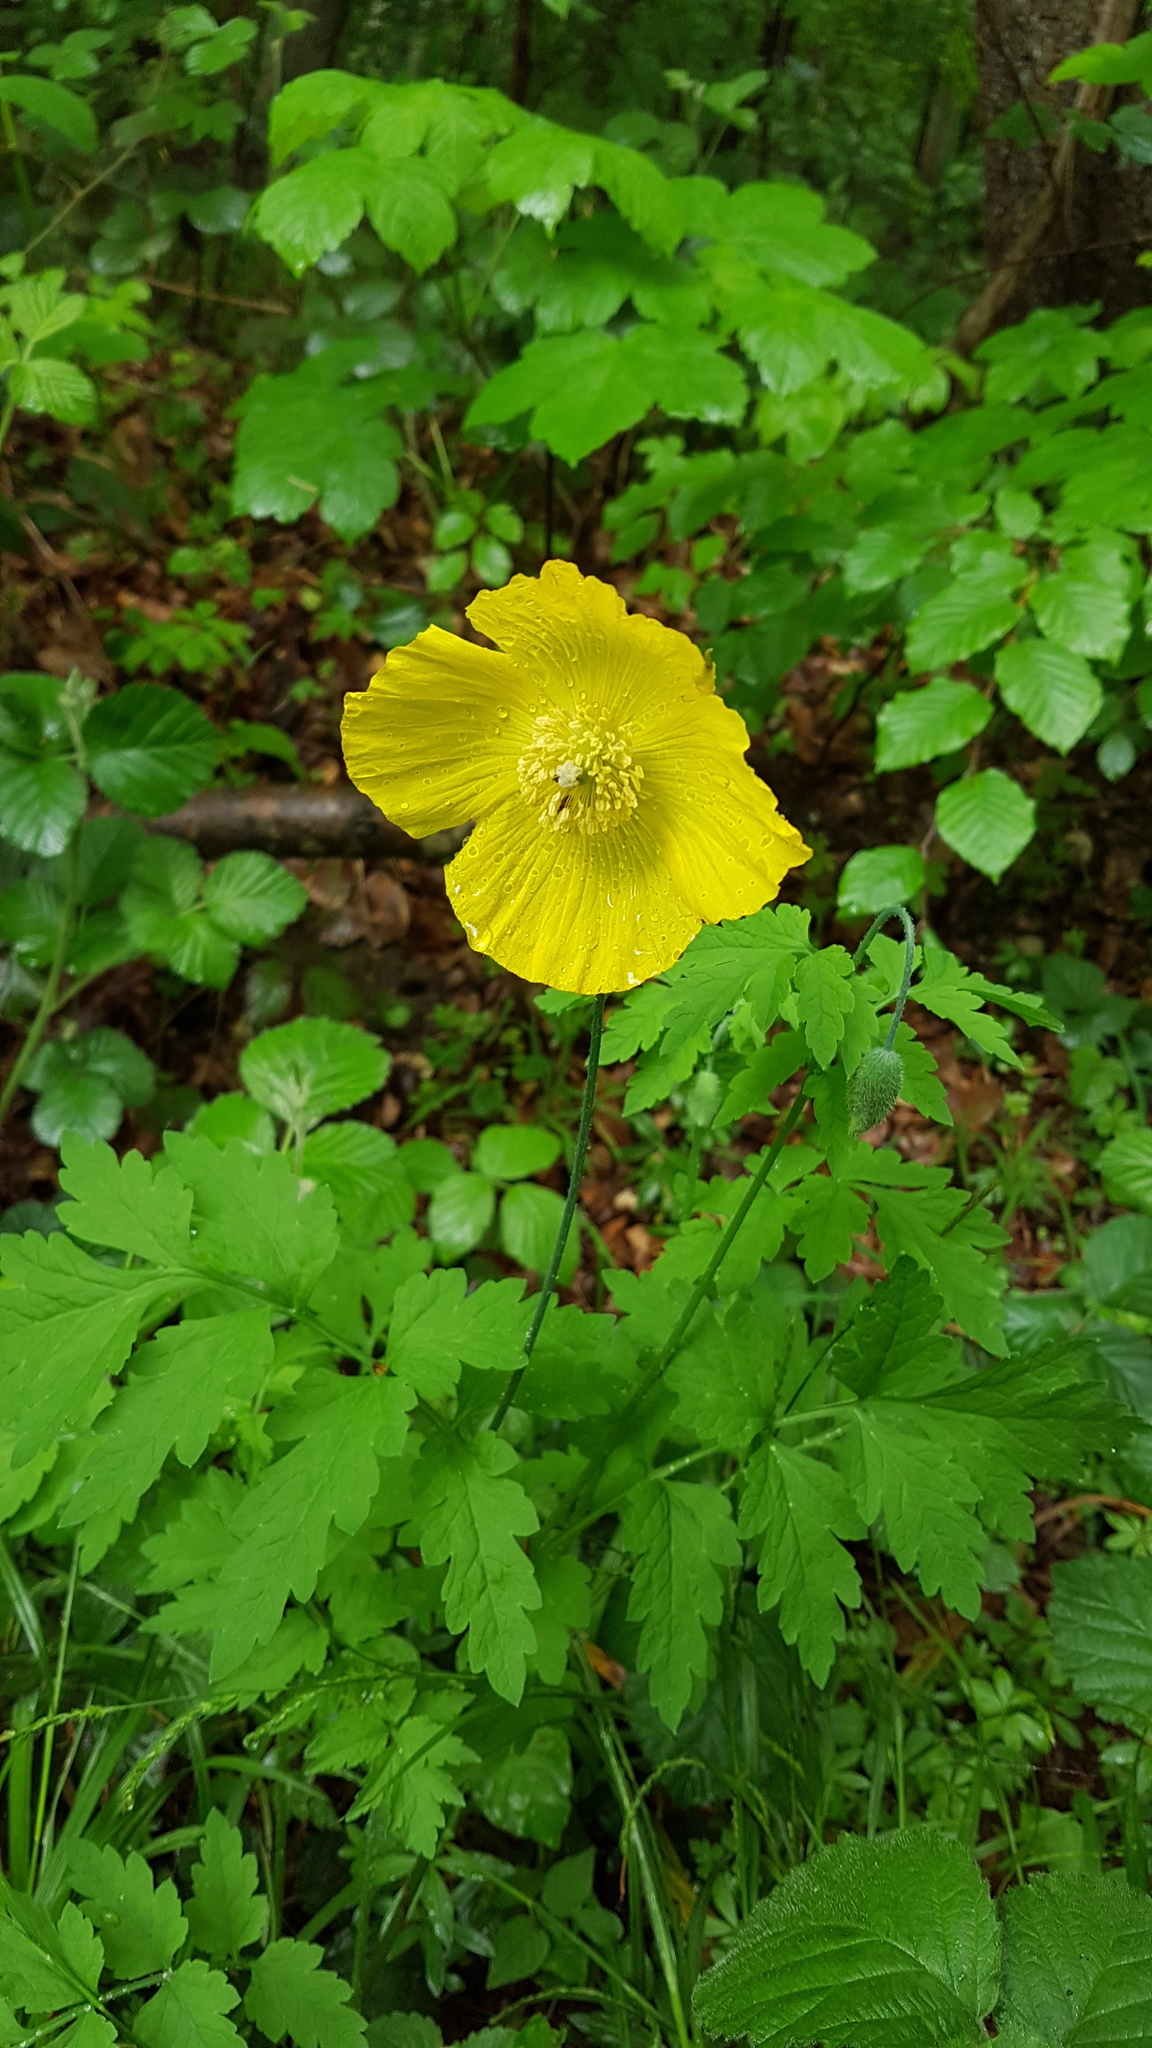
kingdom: Plantae
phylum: Tracheophyta
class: Magnoliopsida
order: Ranunculales
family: Papaveraceae
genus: Papaver
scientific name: Papaver cambricum
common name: Poppy
